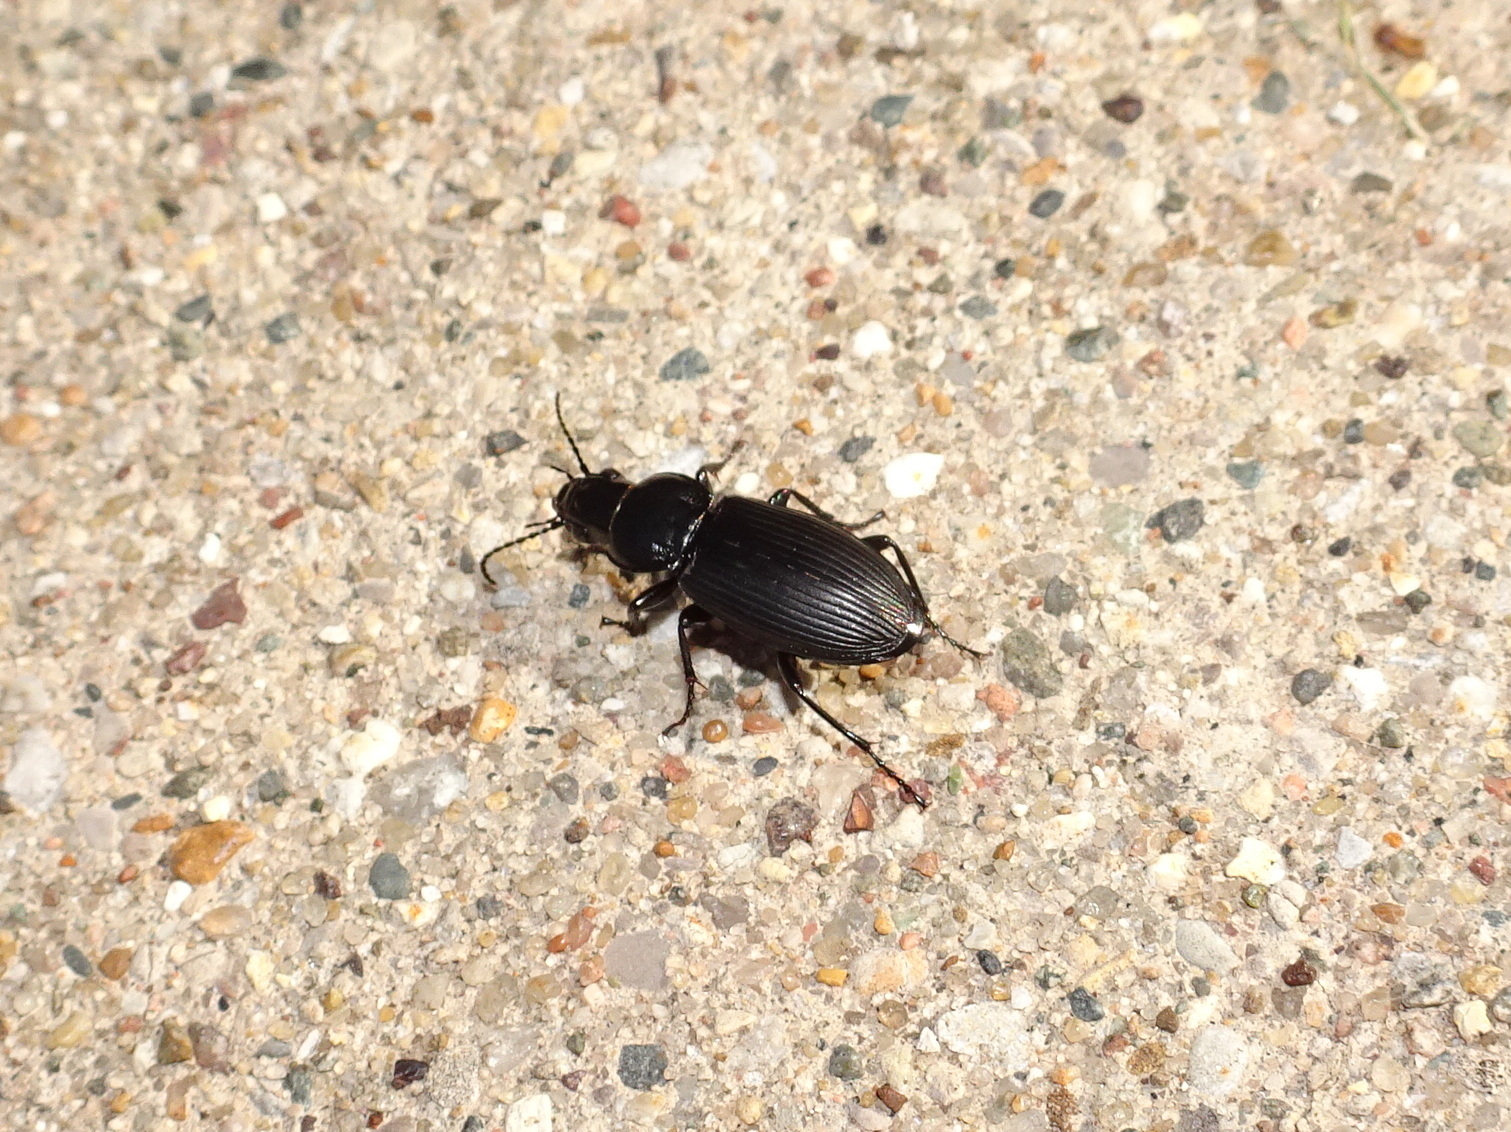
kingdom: Animalia
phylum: Arthropoda
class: Insecta
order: Coleoptera
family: Carabidae
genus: Pterostichus
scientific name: Pterostichus melanarius
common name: European dark harp ground beetle
